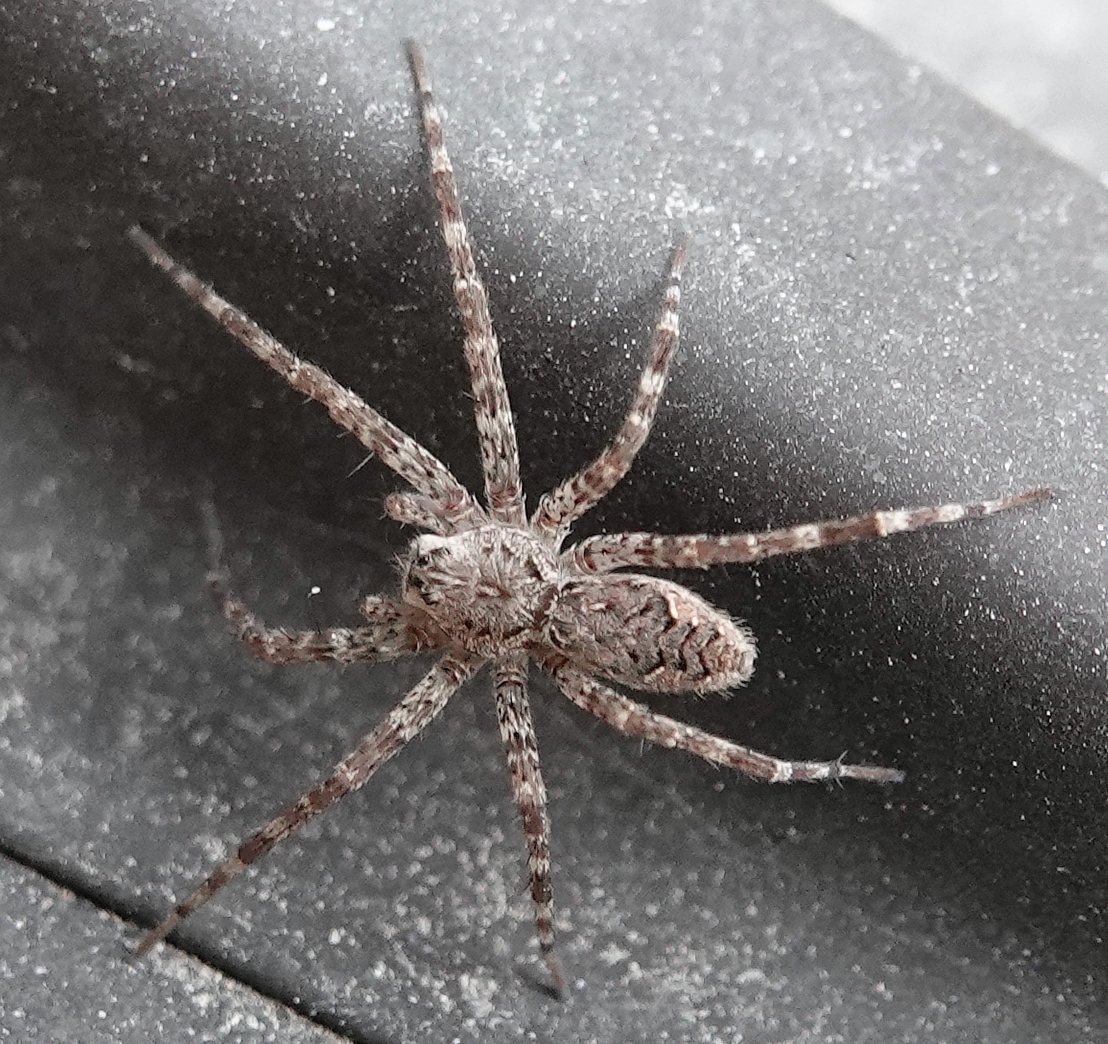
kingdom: Animalia
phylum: Arthropoda
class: Arachnida
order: Araneae
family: Pisauridae
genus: Dolomedes
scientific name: Dolomedes tenebrosus
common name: Dark fishing spider
